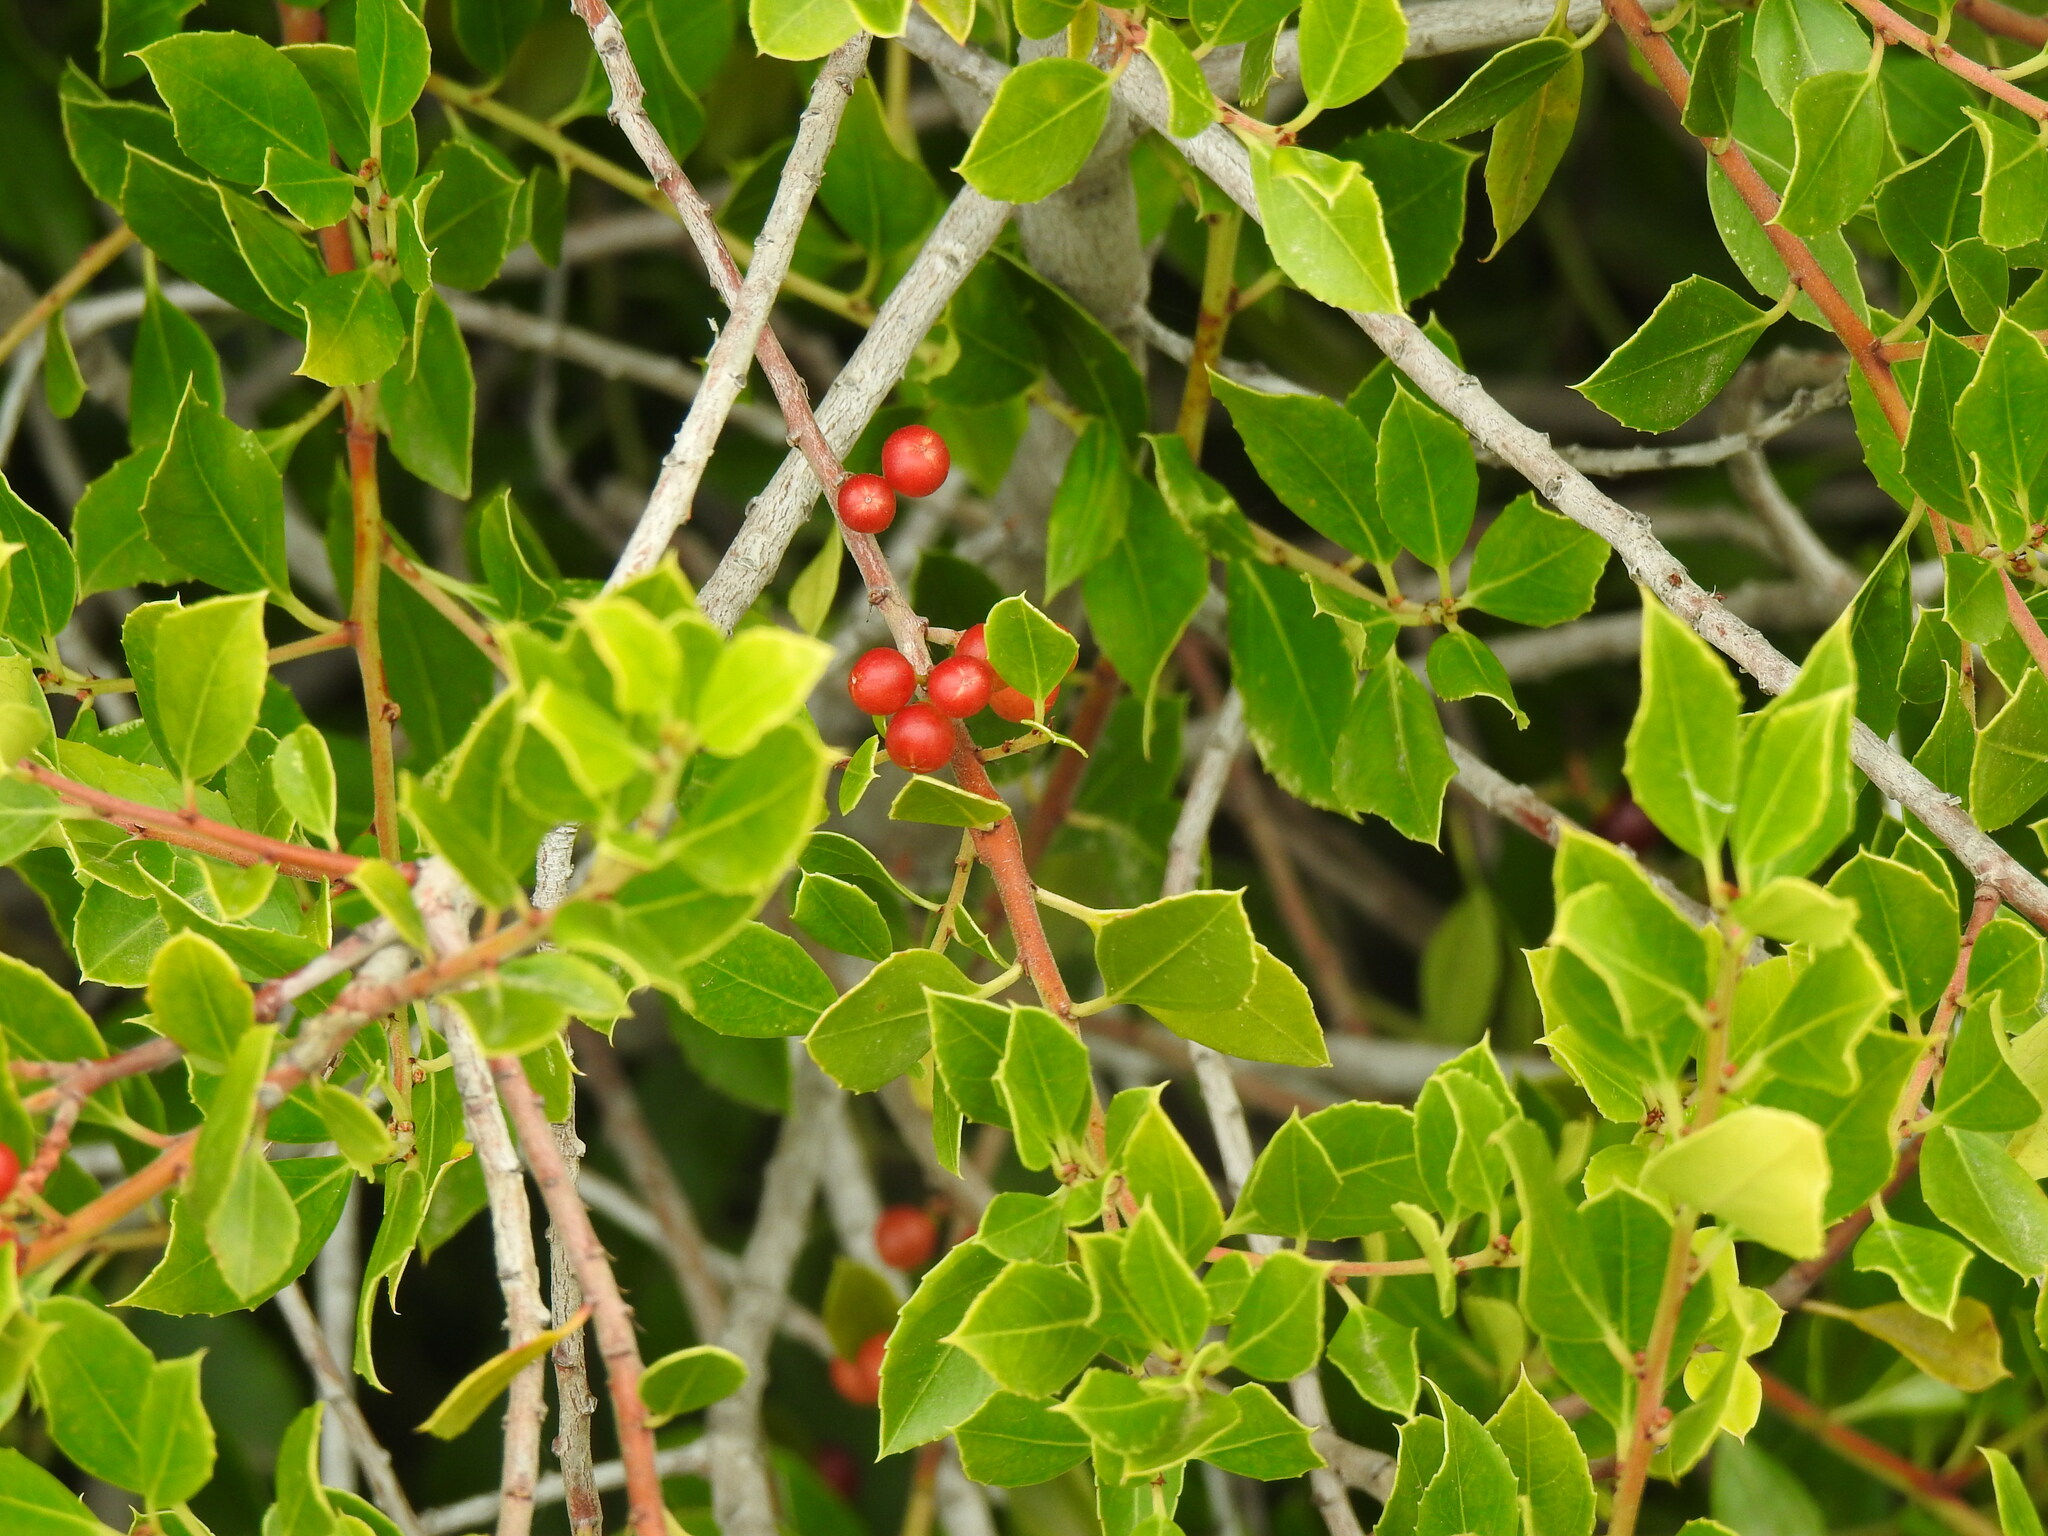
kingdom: Plantae
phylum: Tracheophyta
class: Magnoliopsida
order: Rosales
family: Rhamnaceae
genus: Rhamnus
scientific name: Rhamnus alaternus
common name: Mediterranean buckthorn
